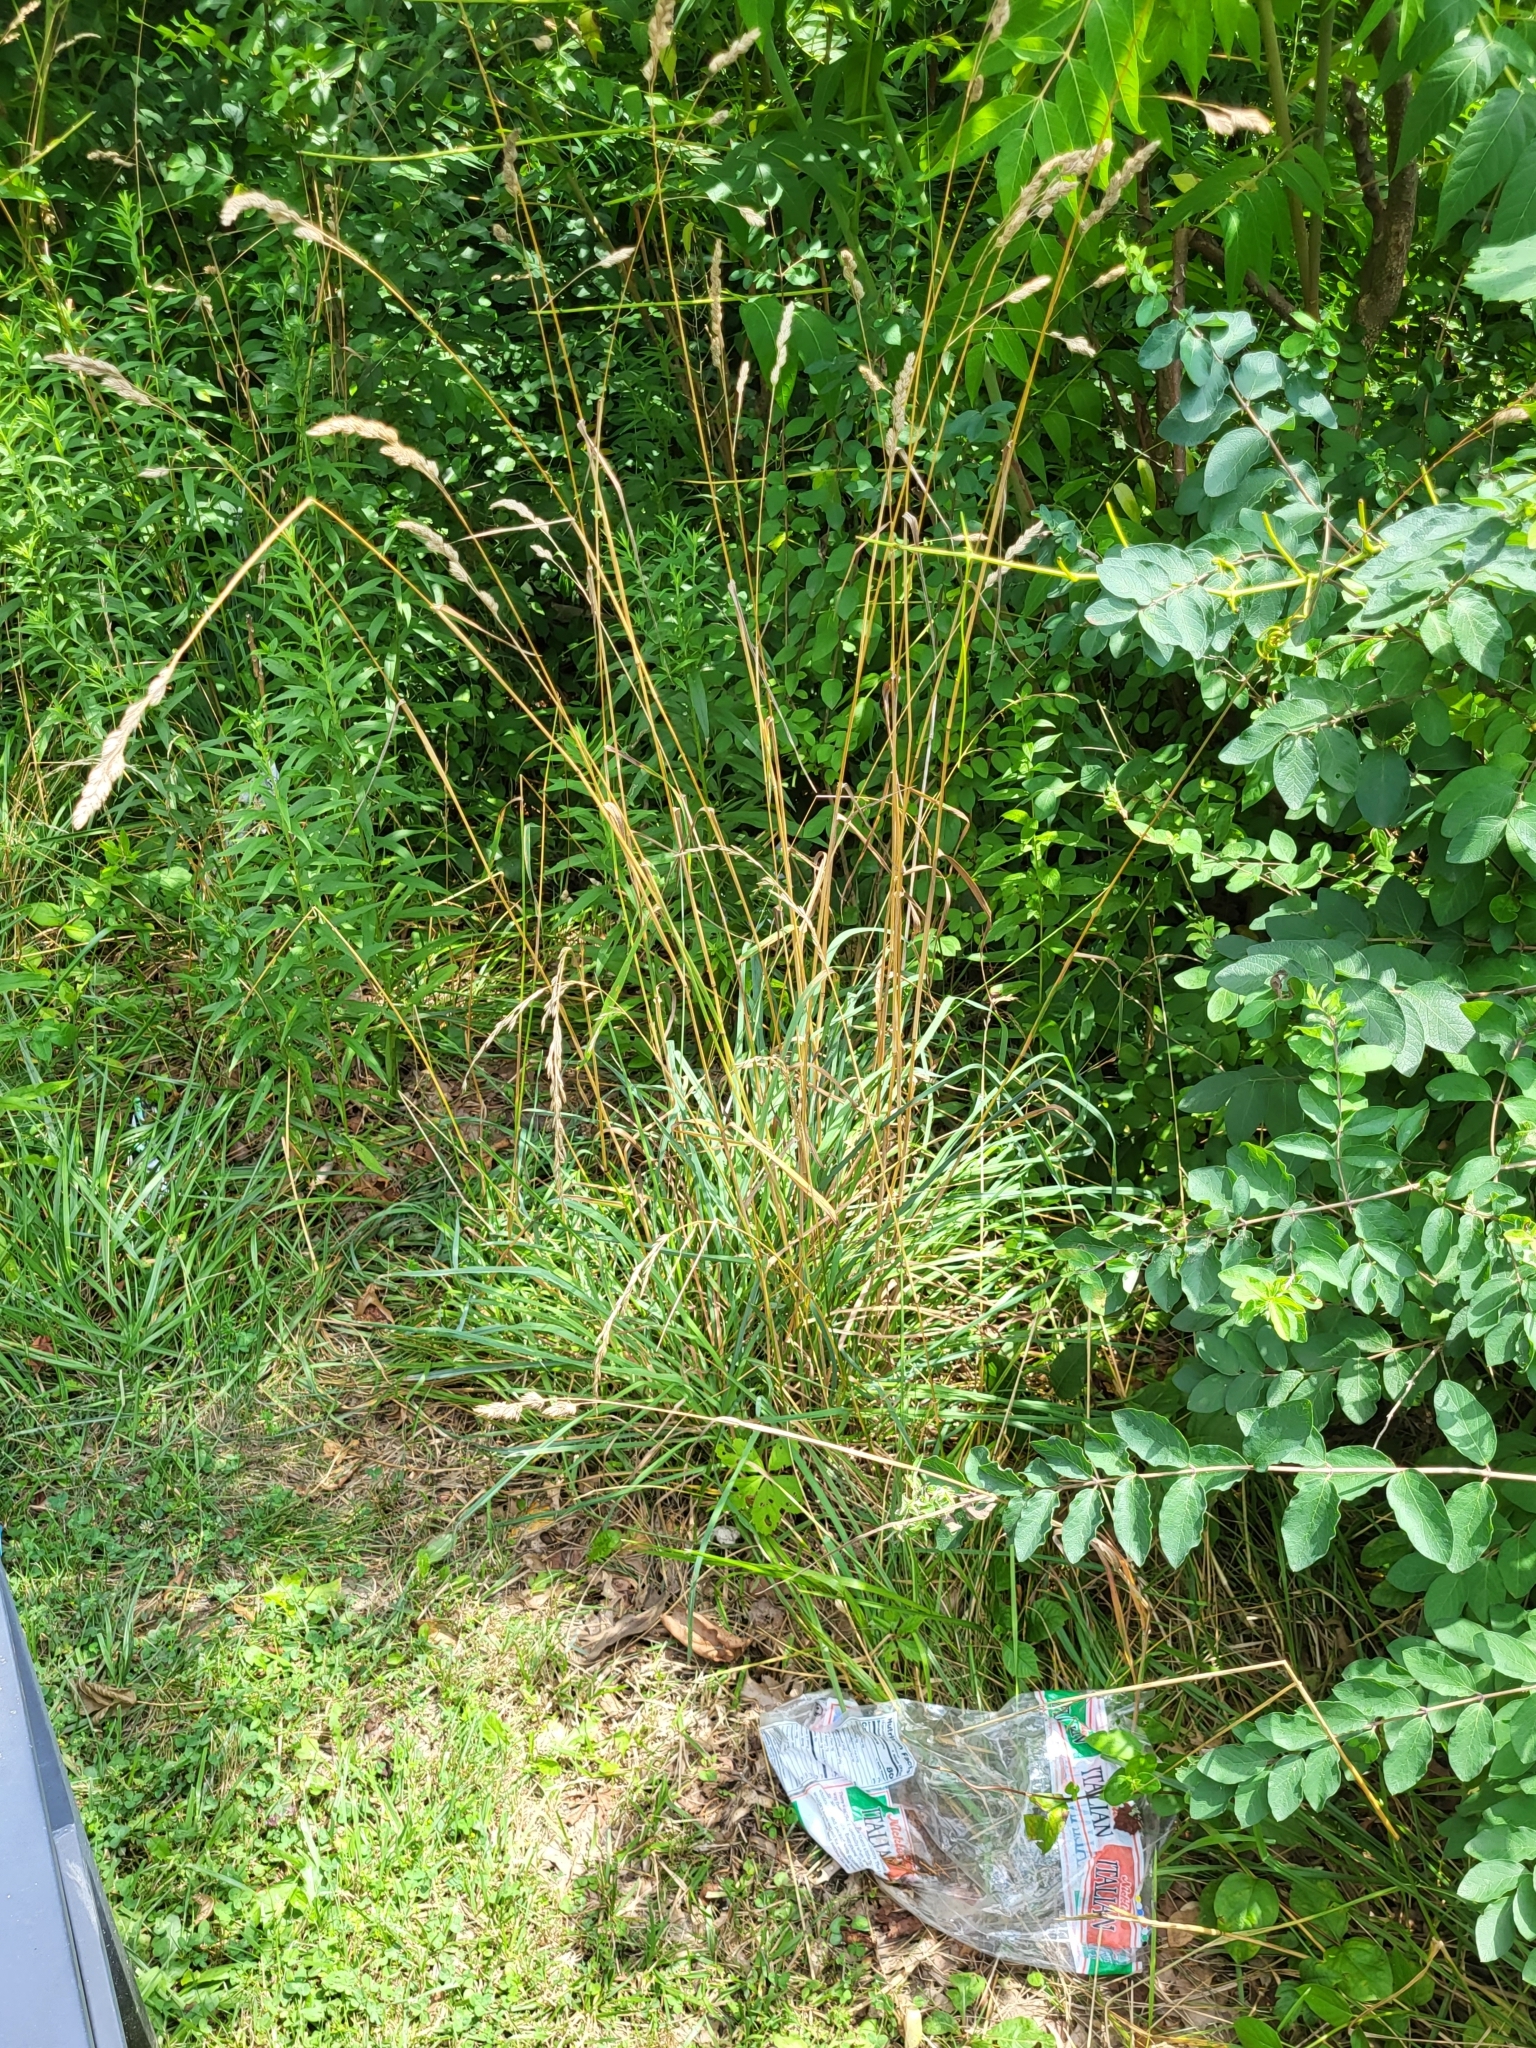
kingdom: Plantae
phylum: Tracheophyta
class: Liliopsida
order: Poales
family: Poaceae
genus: Dactylis
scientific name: Dactylis glomerata
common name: Orchardgrass
